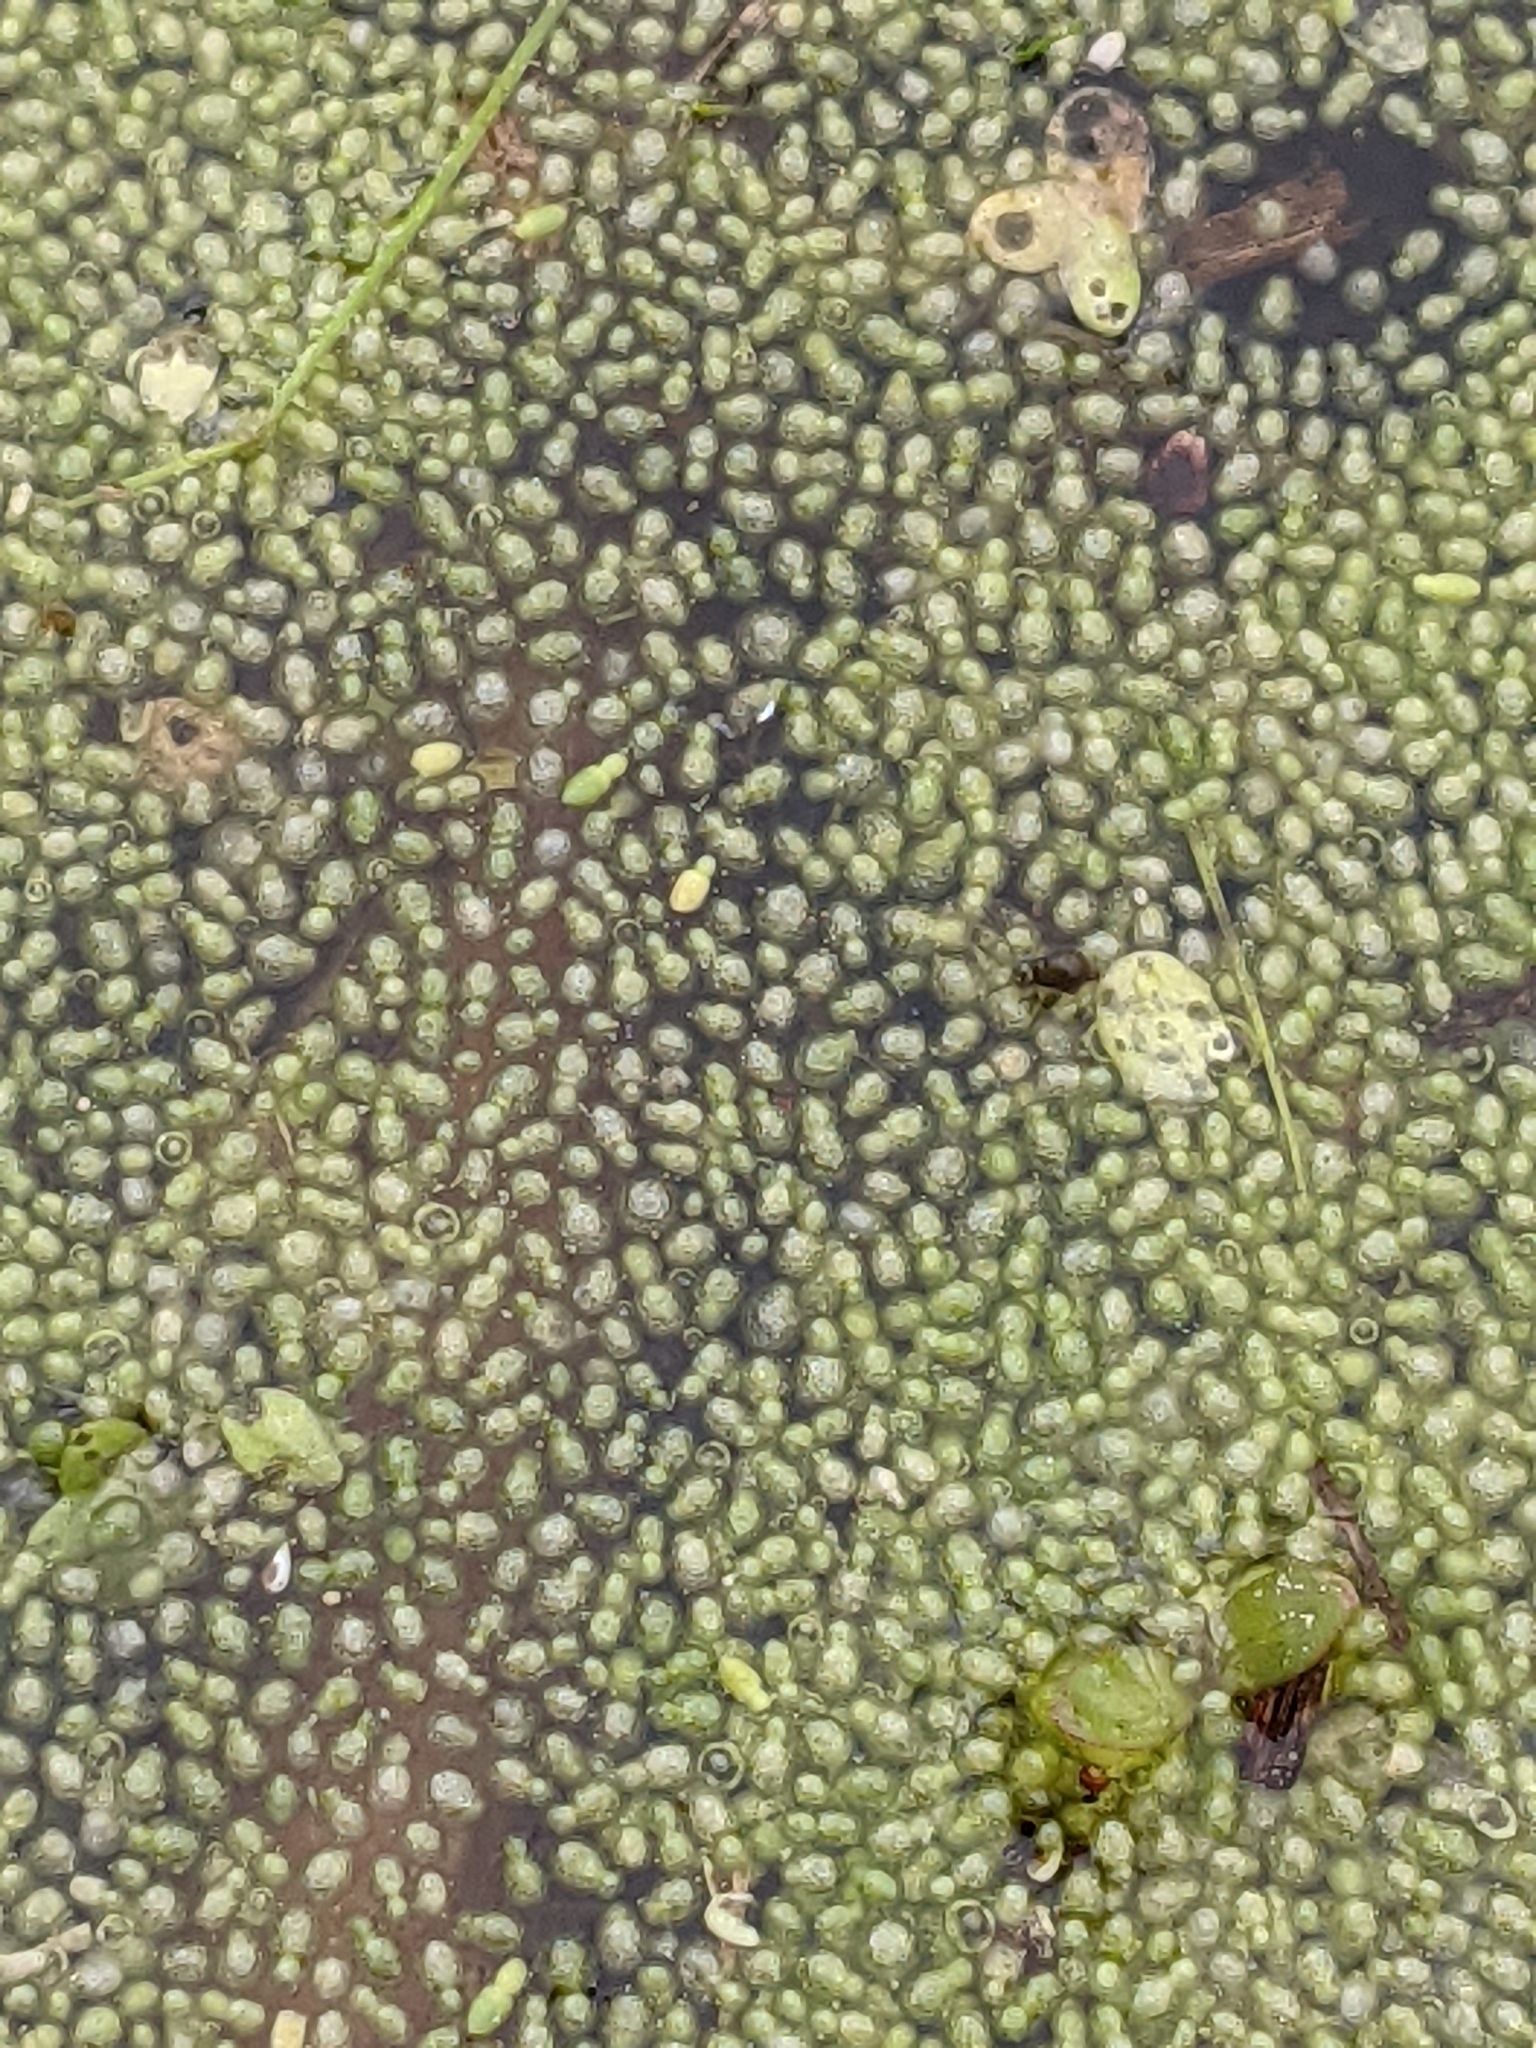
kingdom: Plantae
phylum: Tracheophyta
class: Liliopsida
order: Alismatales
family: Araceae
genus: Wolffia
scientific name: Wolffia columbiana
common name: Columbia watermeal
